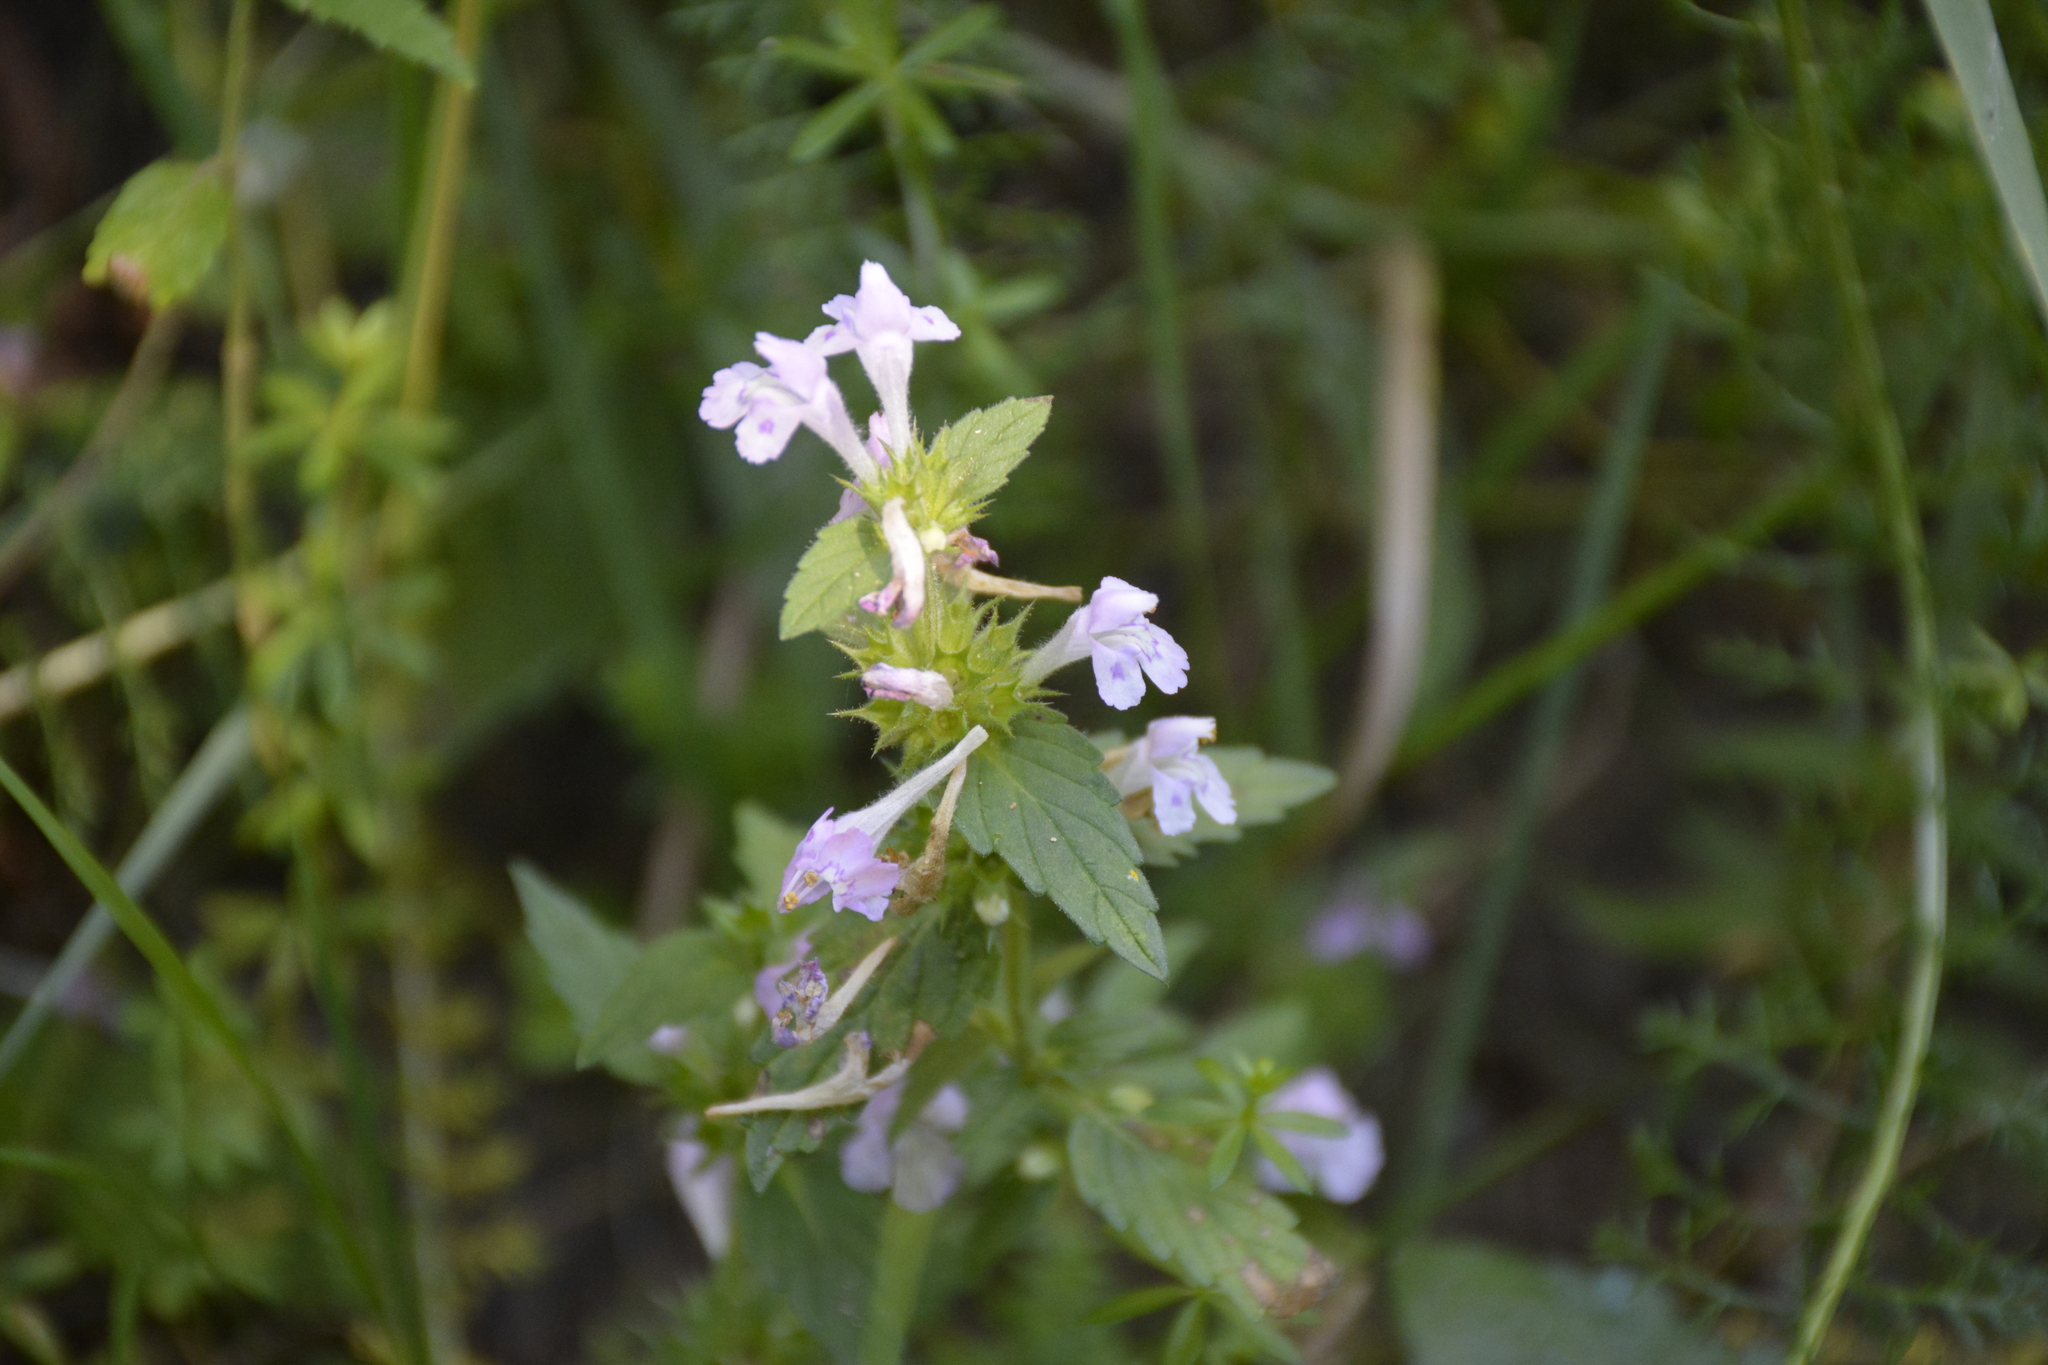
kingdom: Plantae
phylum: Tracheophyta
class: Magnoliopsida
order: Lamiales
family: Lamiaceae
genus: Galeopsis
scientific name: Galeopsis ladanum
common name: Broad-leaved hemp-nettle
